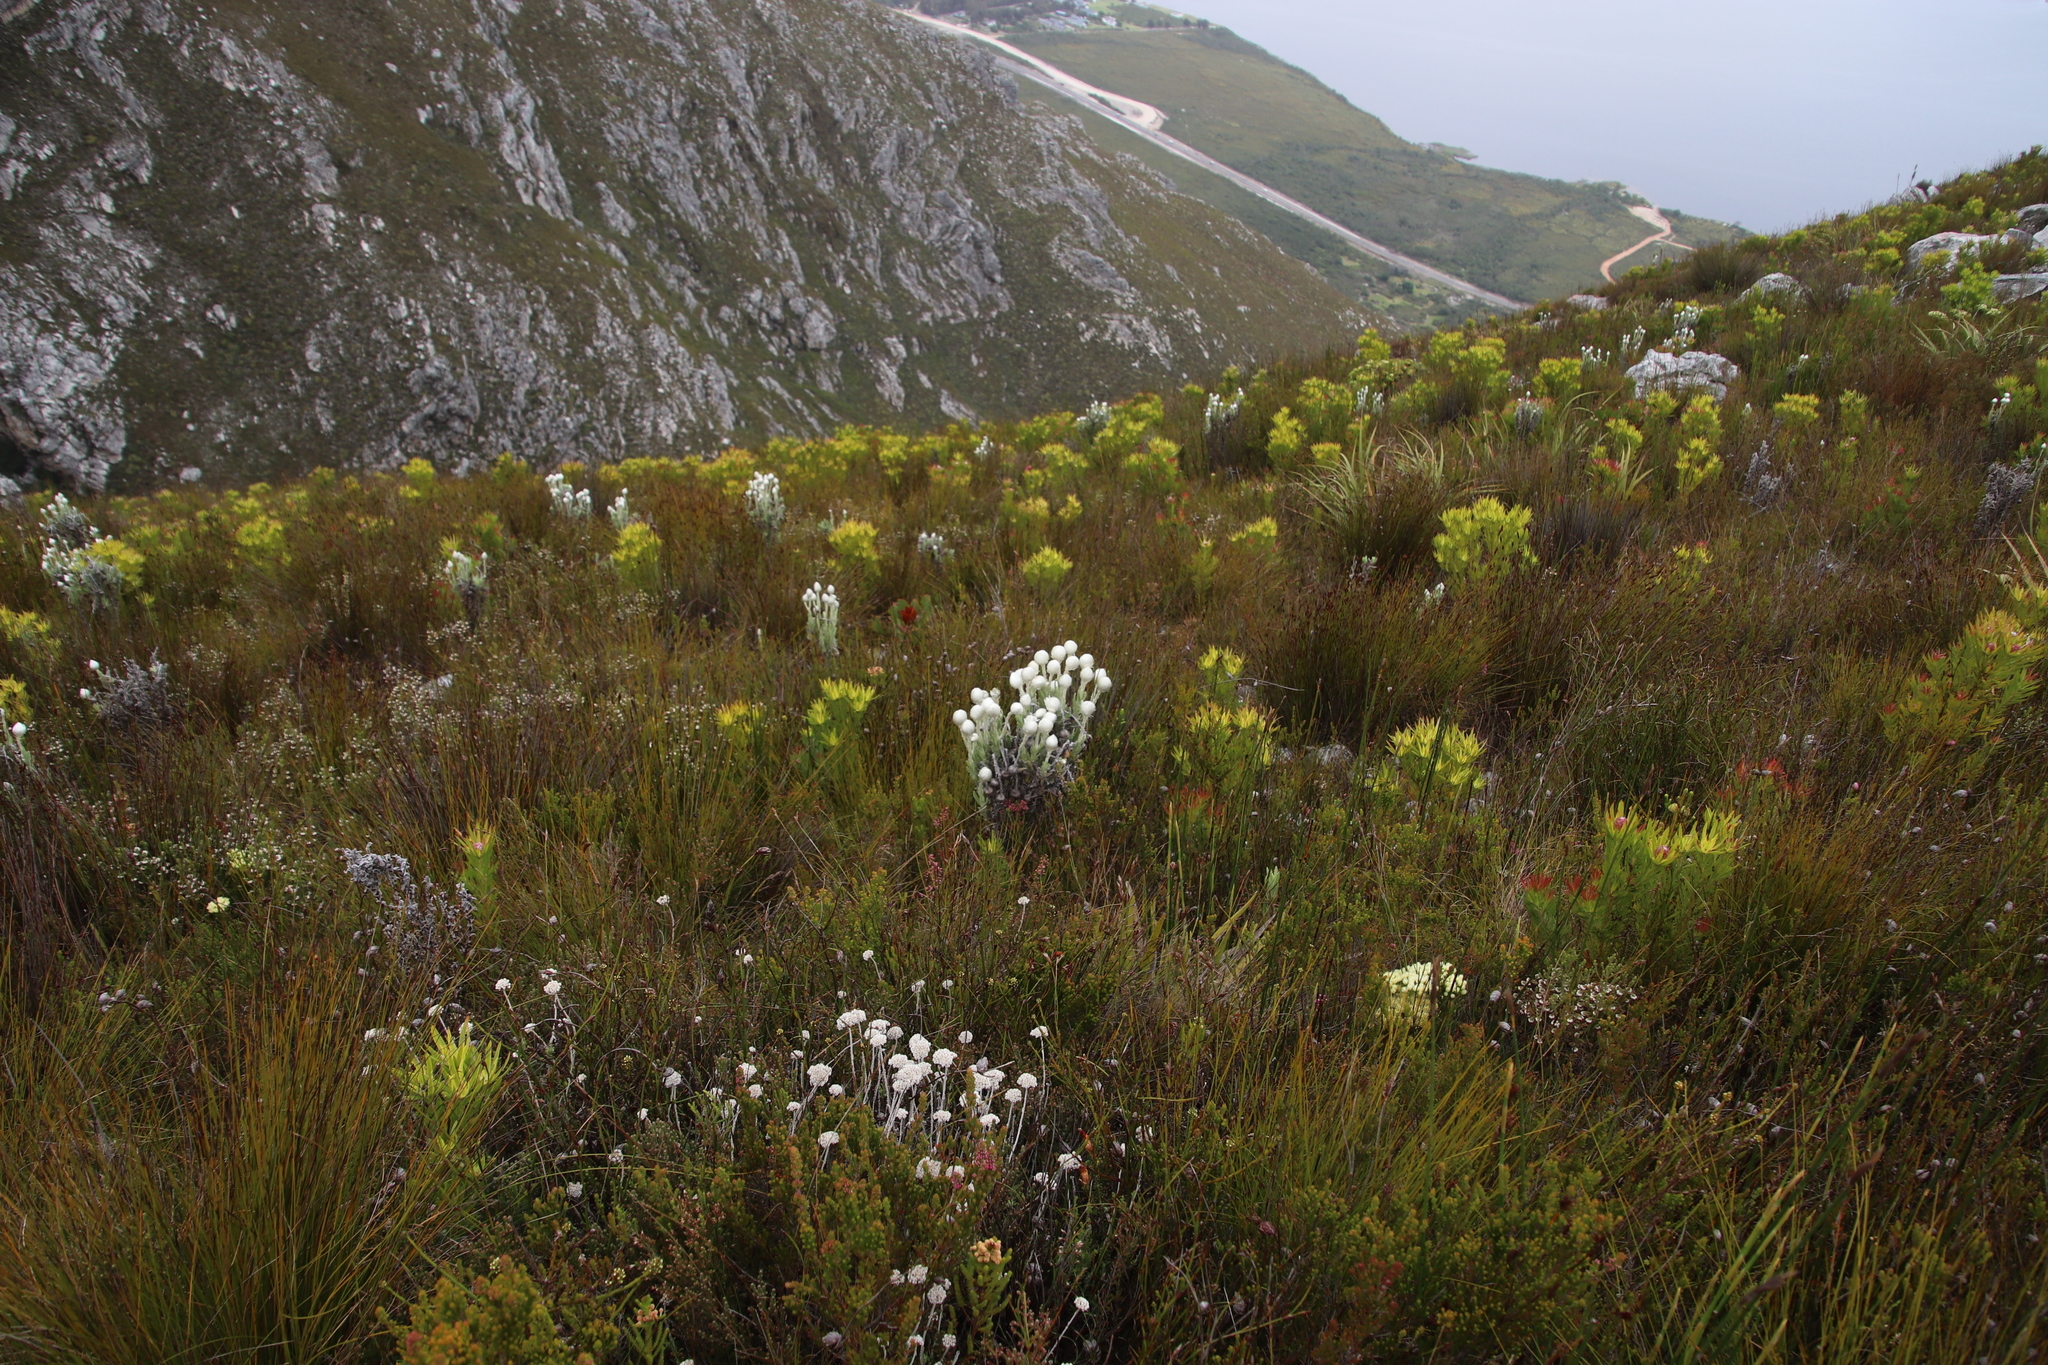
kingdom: Plantae
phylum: Tracheophyta
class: Magnoliopsida
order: Asterales
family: Asteraceae
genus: Syncarpha
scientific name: Syncarpha vestita
